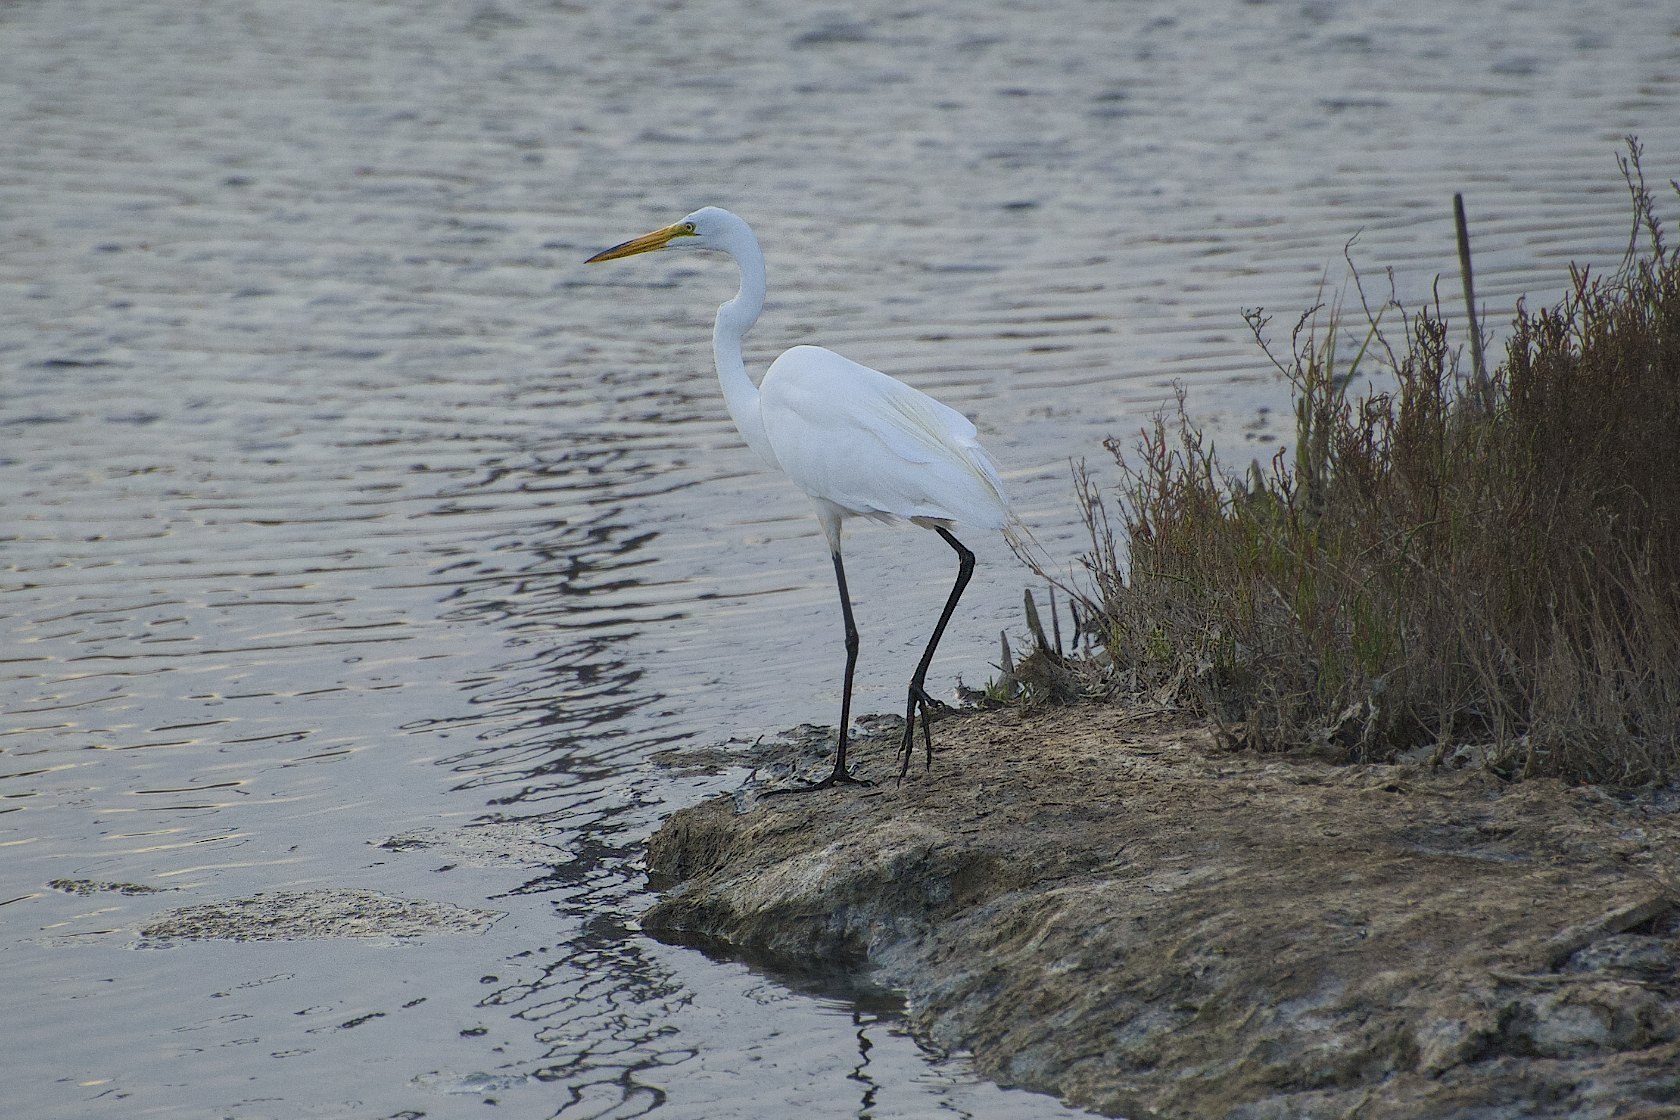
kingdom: Animalia
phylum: Chordata
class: Aves
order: Pelecaniformes
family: Ardeidae
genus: Ardea
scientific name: Ardea alba
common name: Great egret
